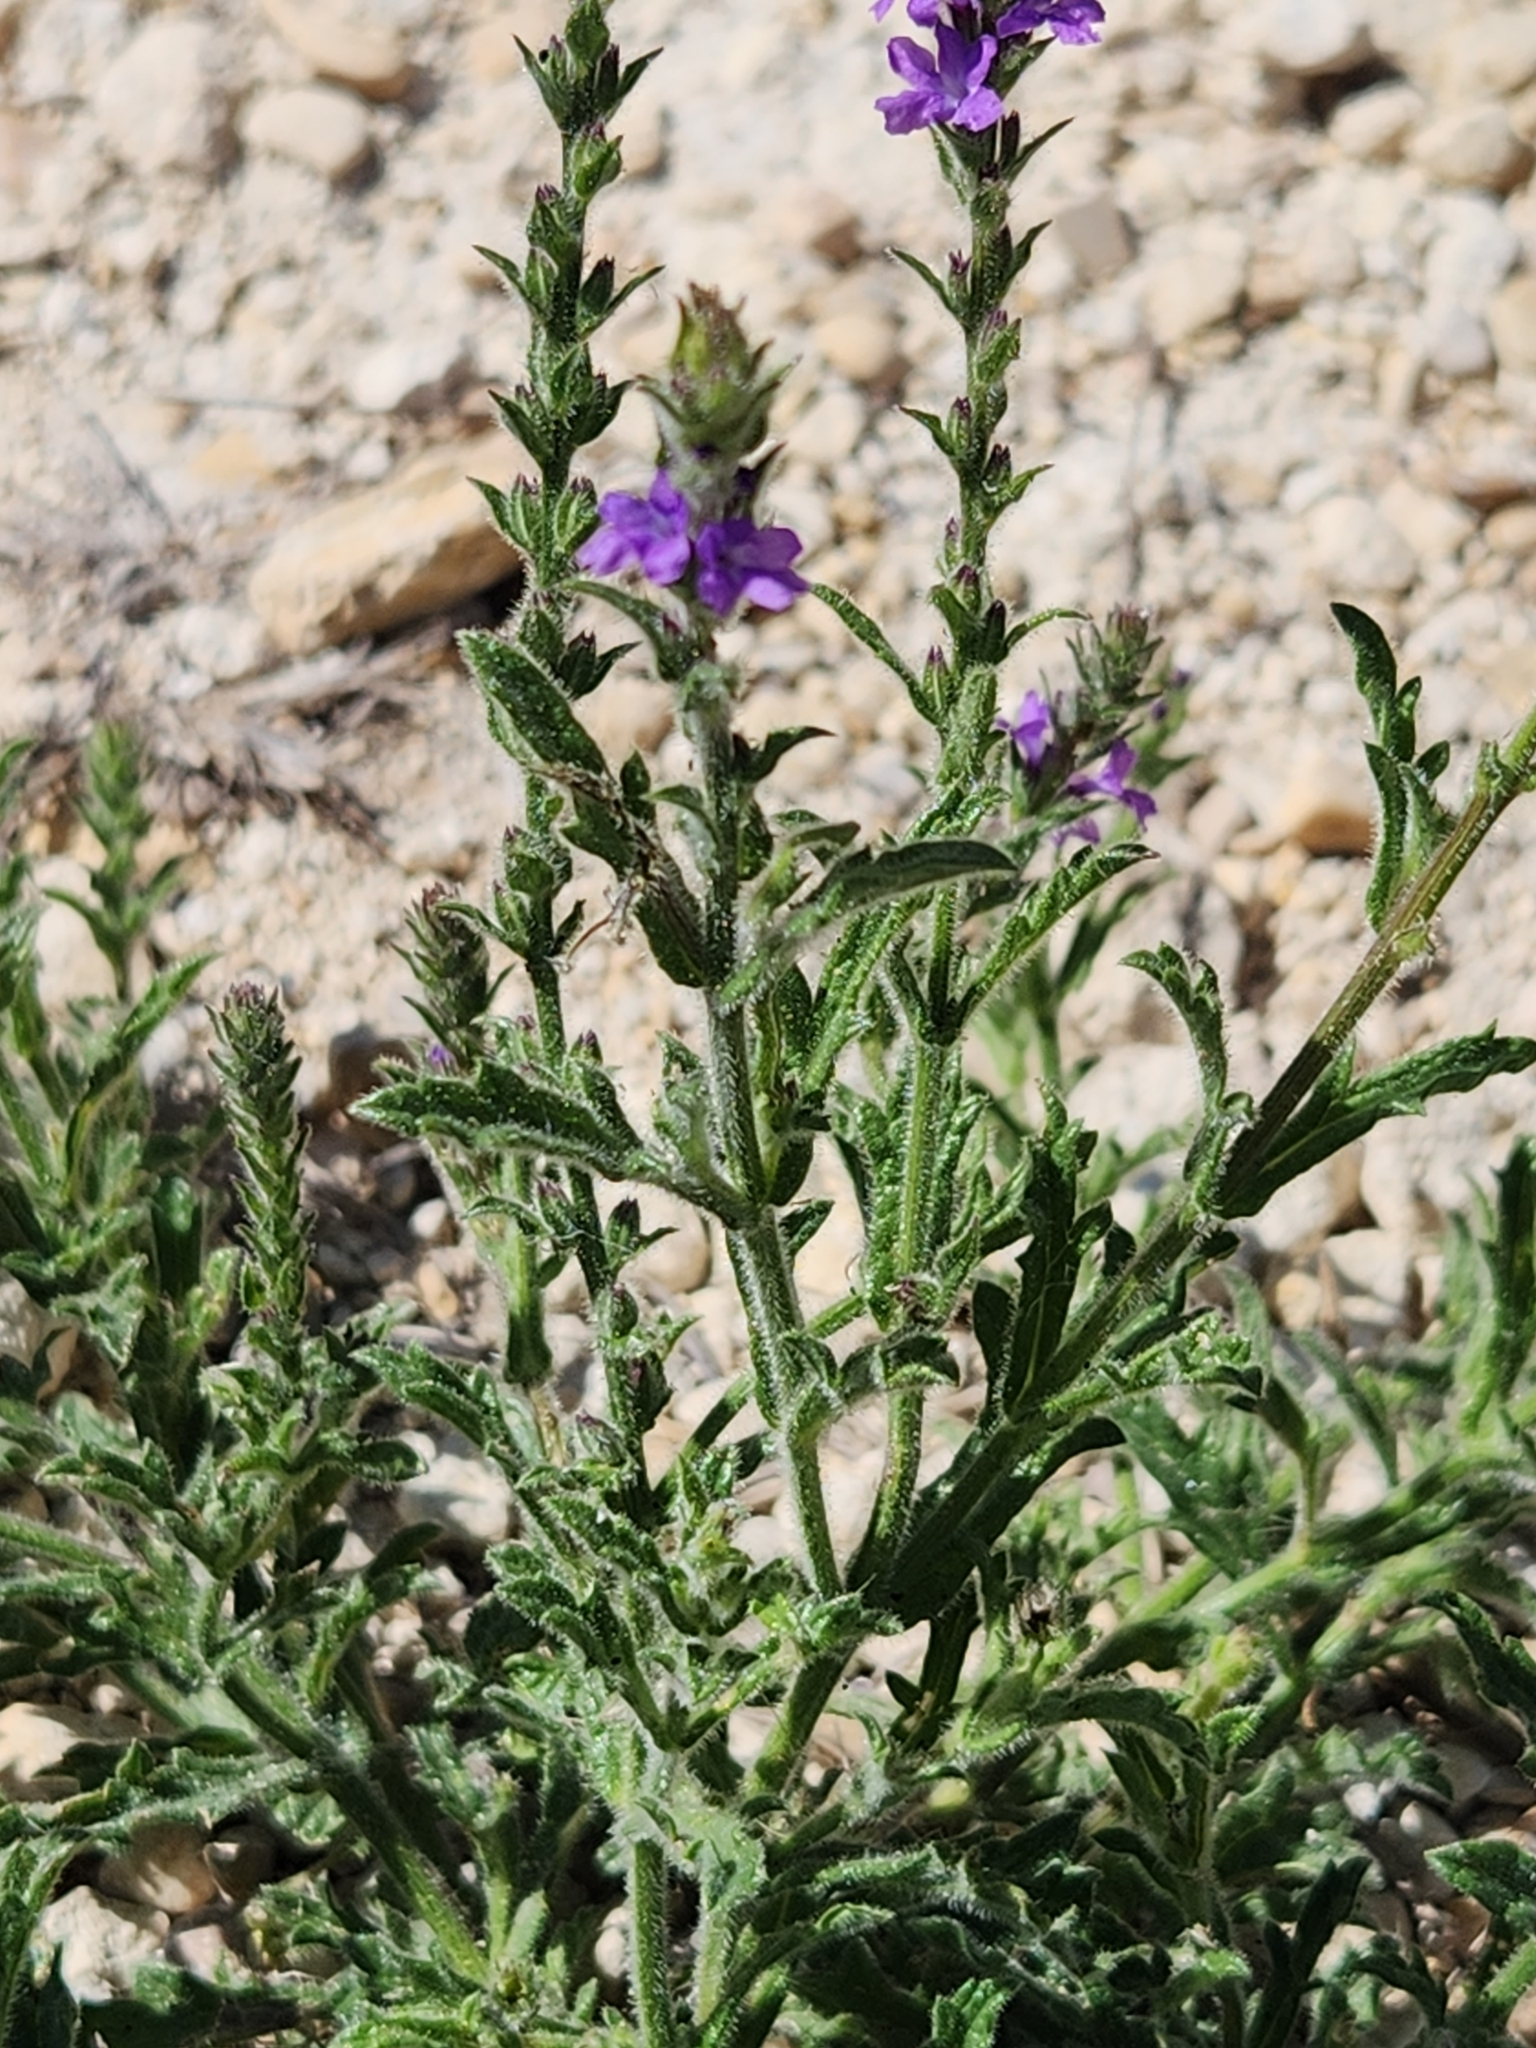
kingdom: Plantae
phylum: Tracheophyta
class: Magnoliopsida
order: Lamiales
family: Verbenaceae
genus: Verbena
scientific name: Verbena canescens
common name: Gray vervain
